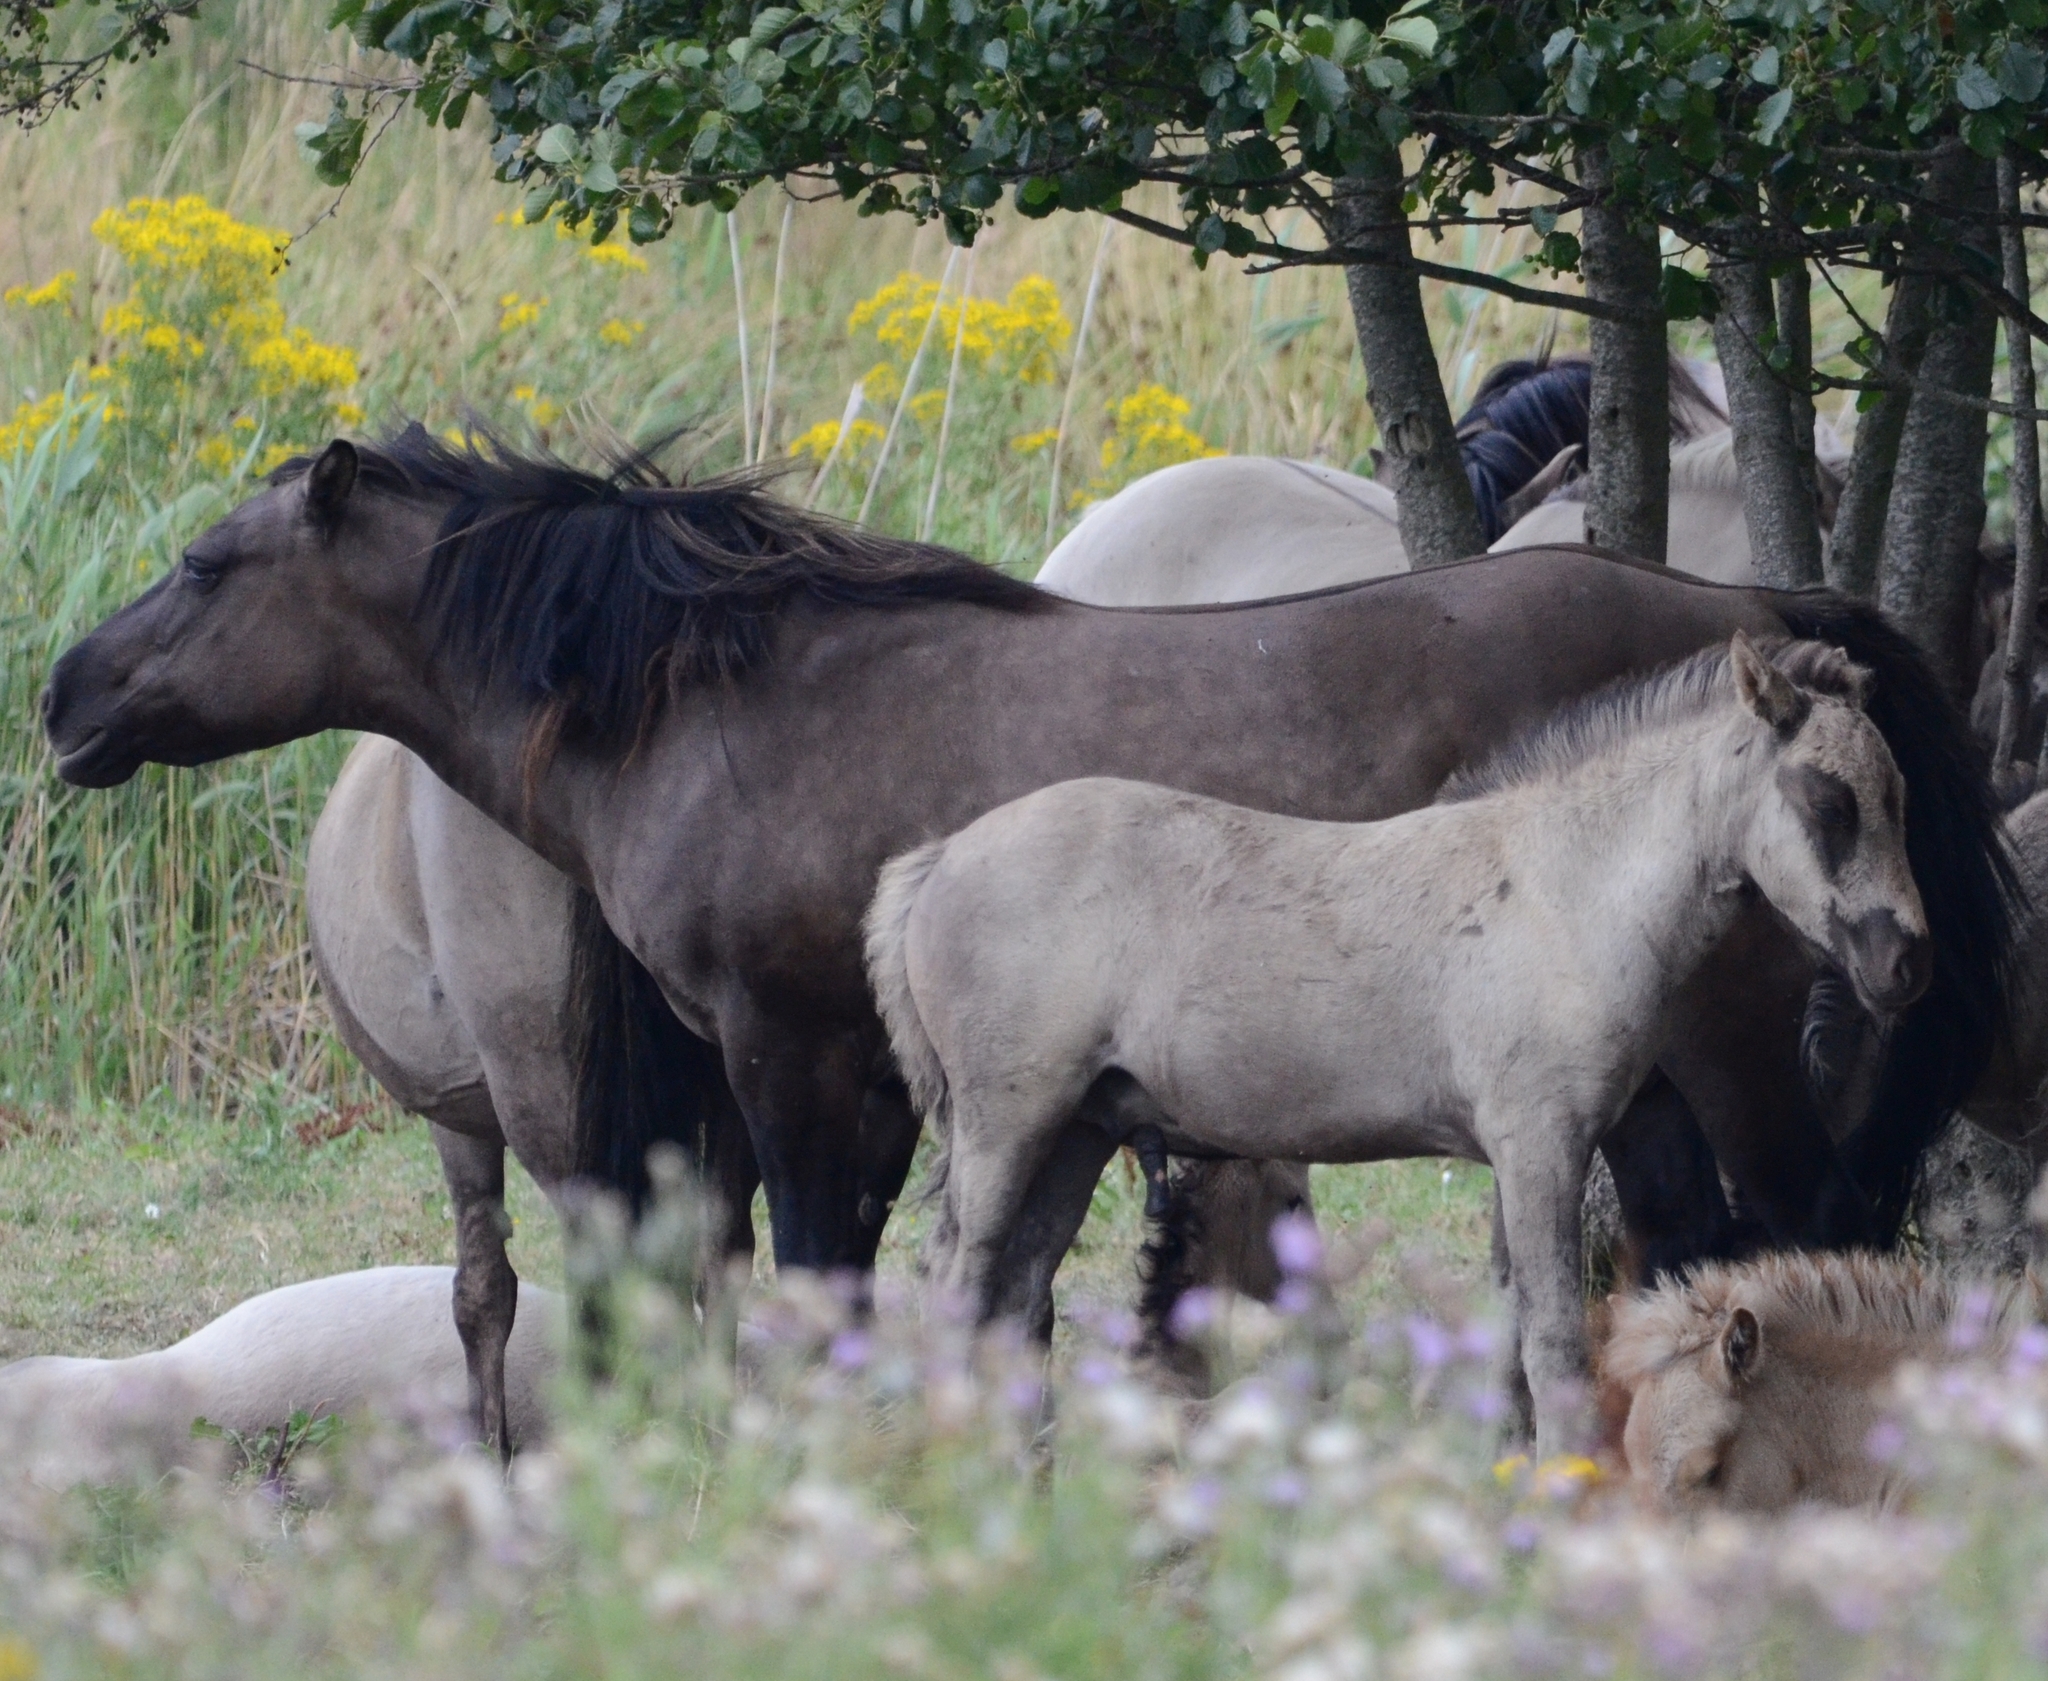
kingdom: Animalia
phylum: Chordata
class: Mammalia
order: Perissodactyla
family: Equidae
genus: Equus
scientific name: Equus caballus
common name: Horse
